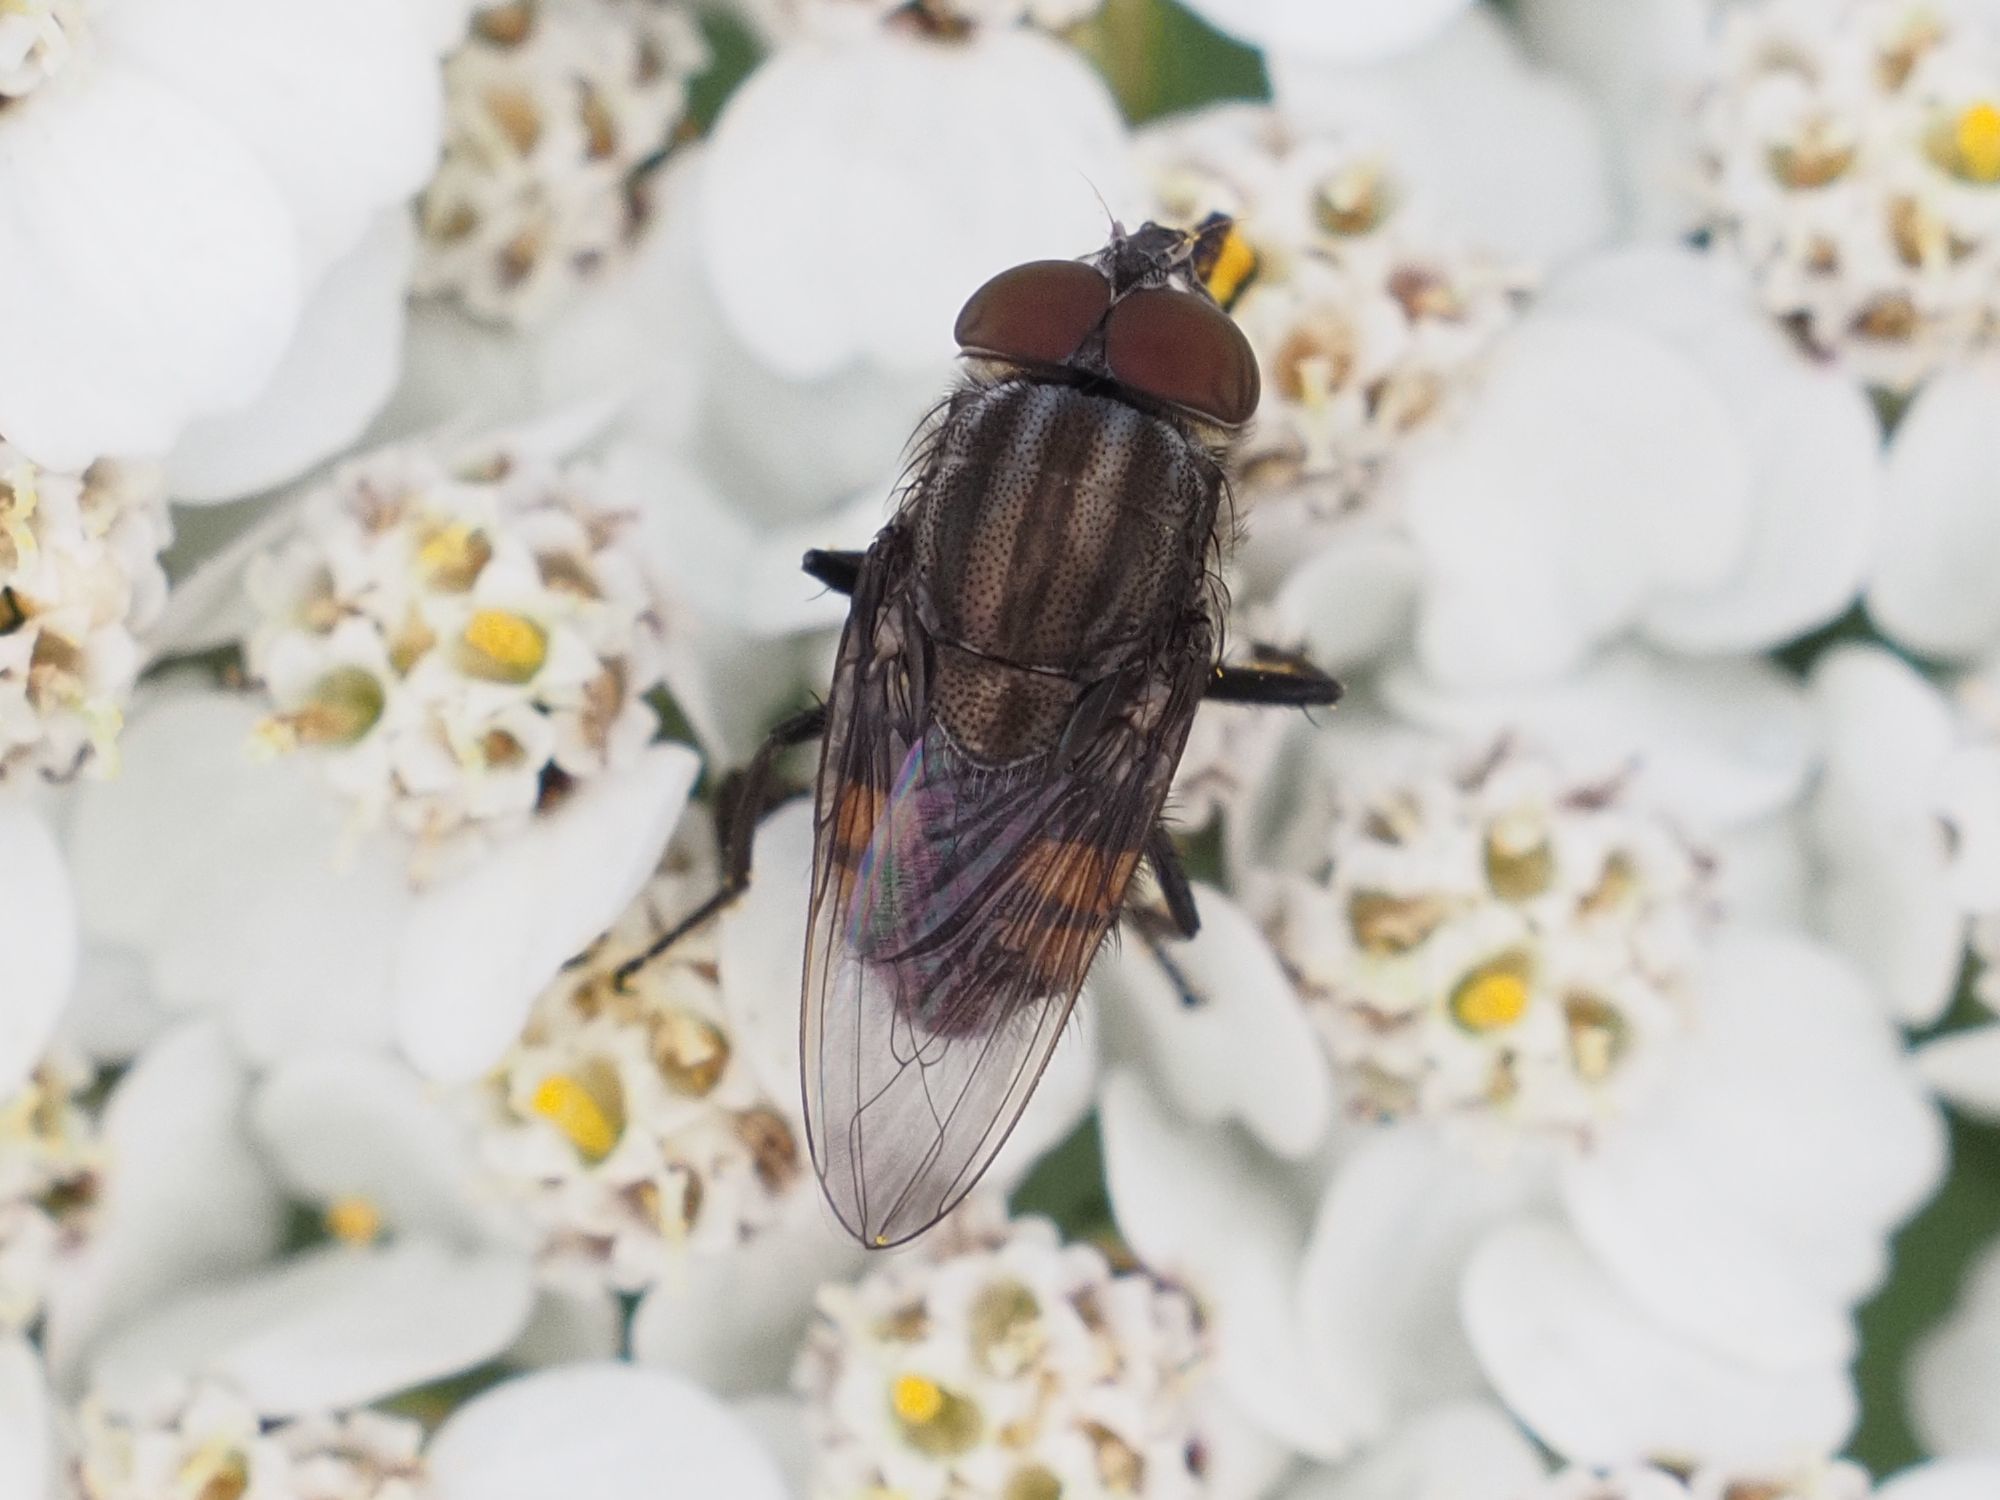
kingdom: Animalia
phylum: Arthropoda
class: Insecta
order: Diptera
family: Calliphoridae
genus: Stomorhina
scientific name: Stomorhina lunata
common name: Locust blowfly
